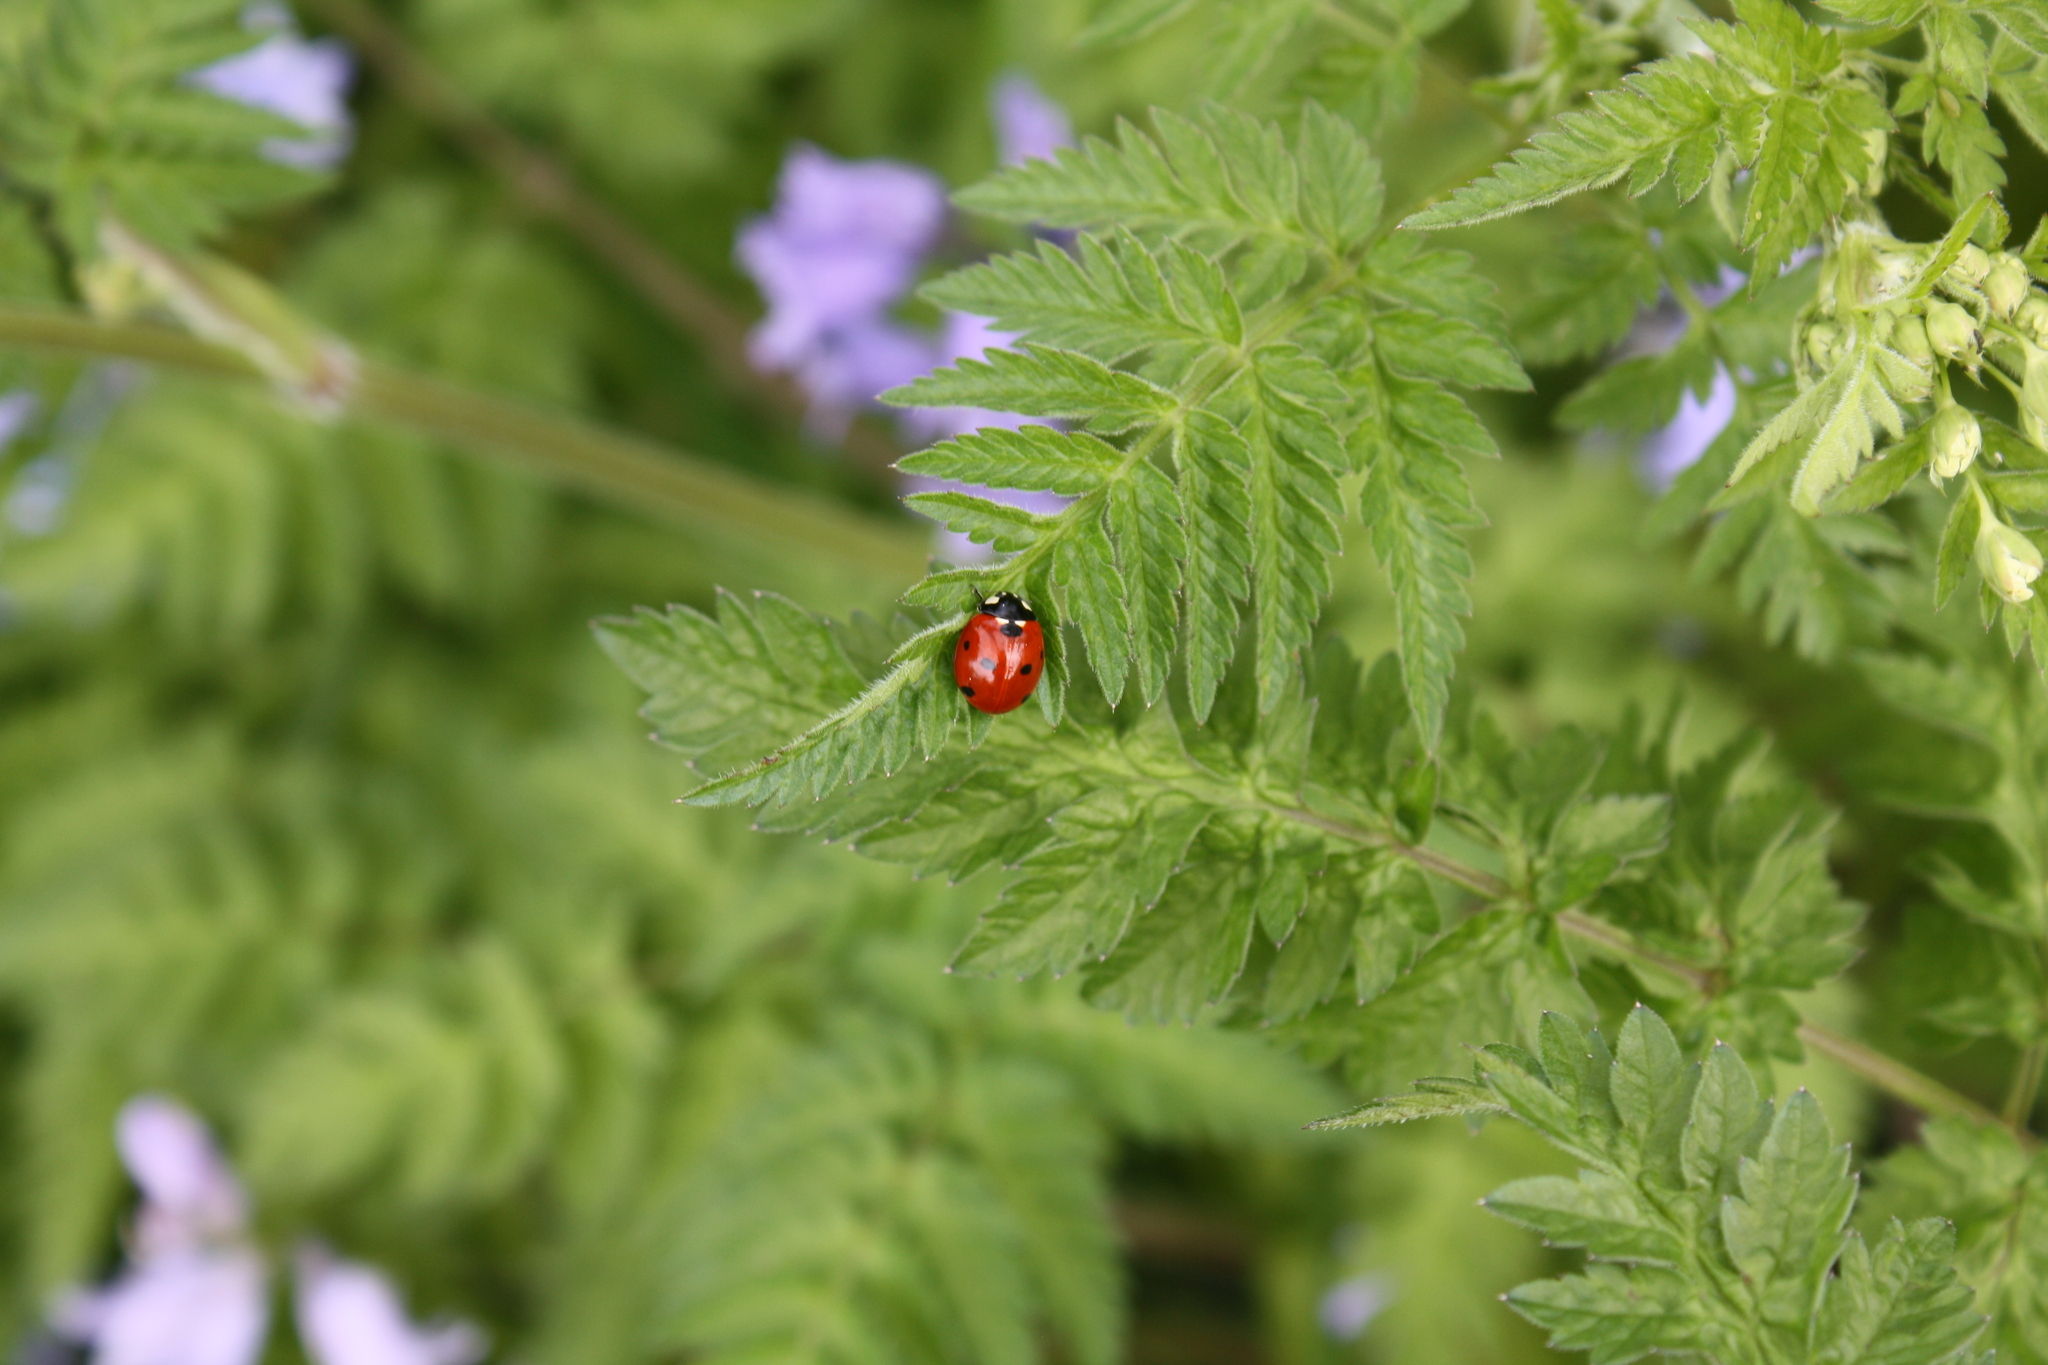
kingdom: Animalia
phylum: Arthropoda
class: Insecta
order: Coleoptera
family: Coccinellidae
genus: Coccinella
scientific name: Coccinella septempunctata
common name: Sevenspotted lady beetle
